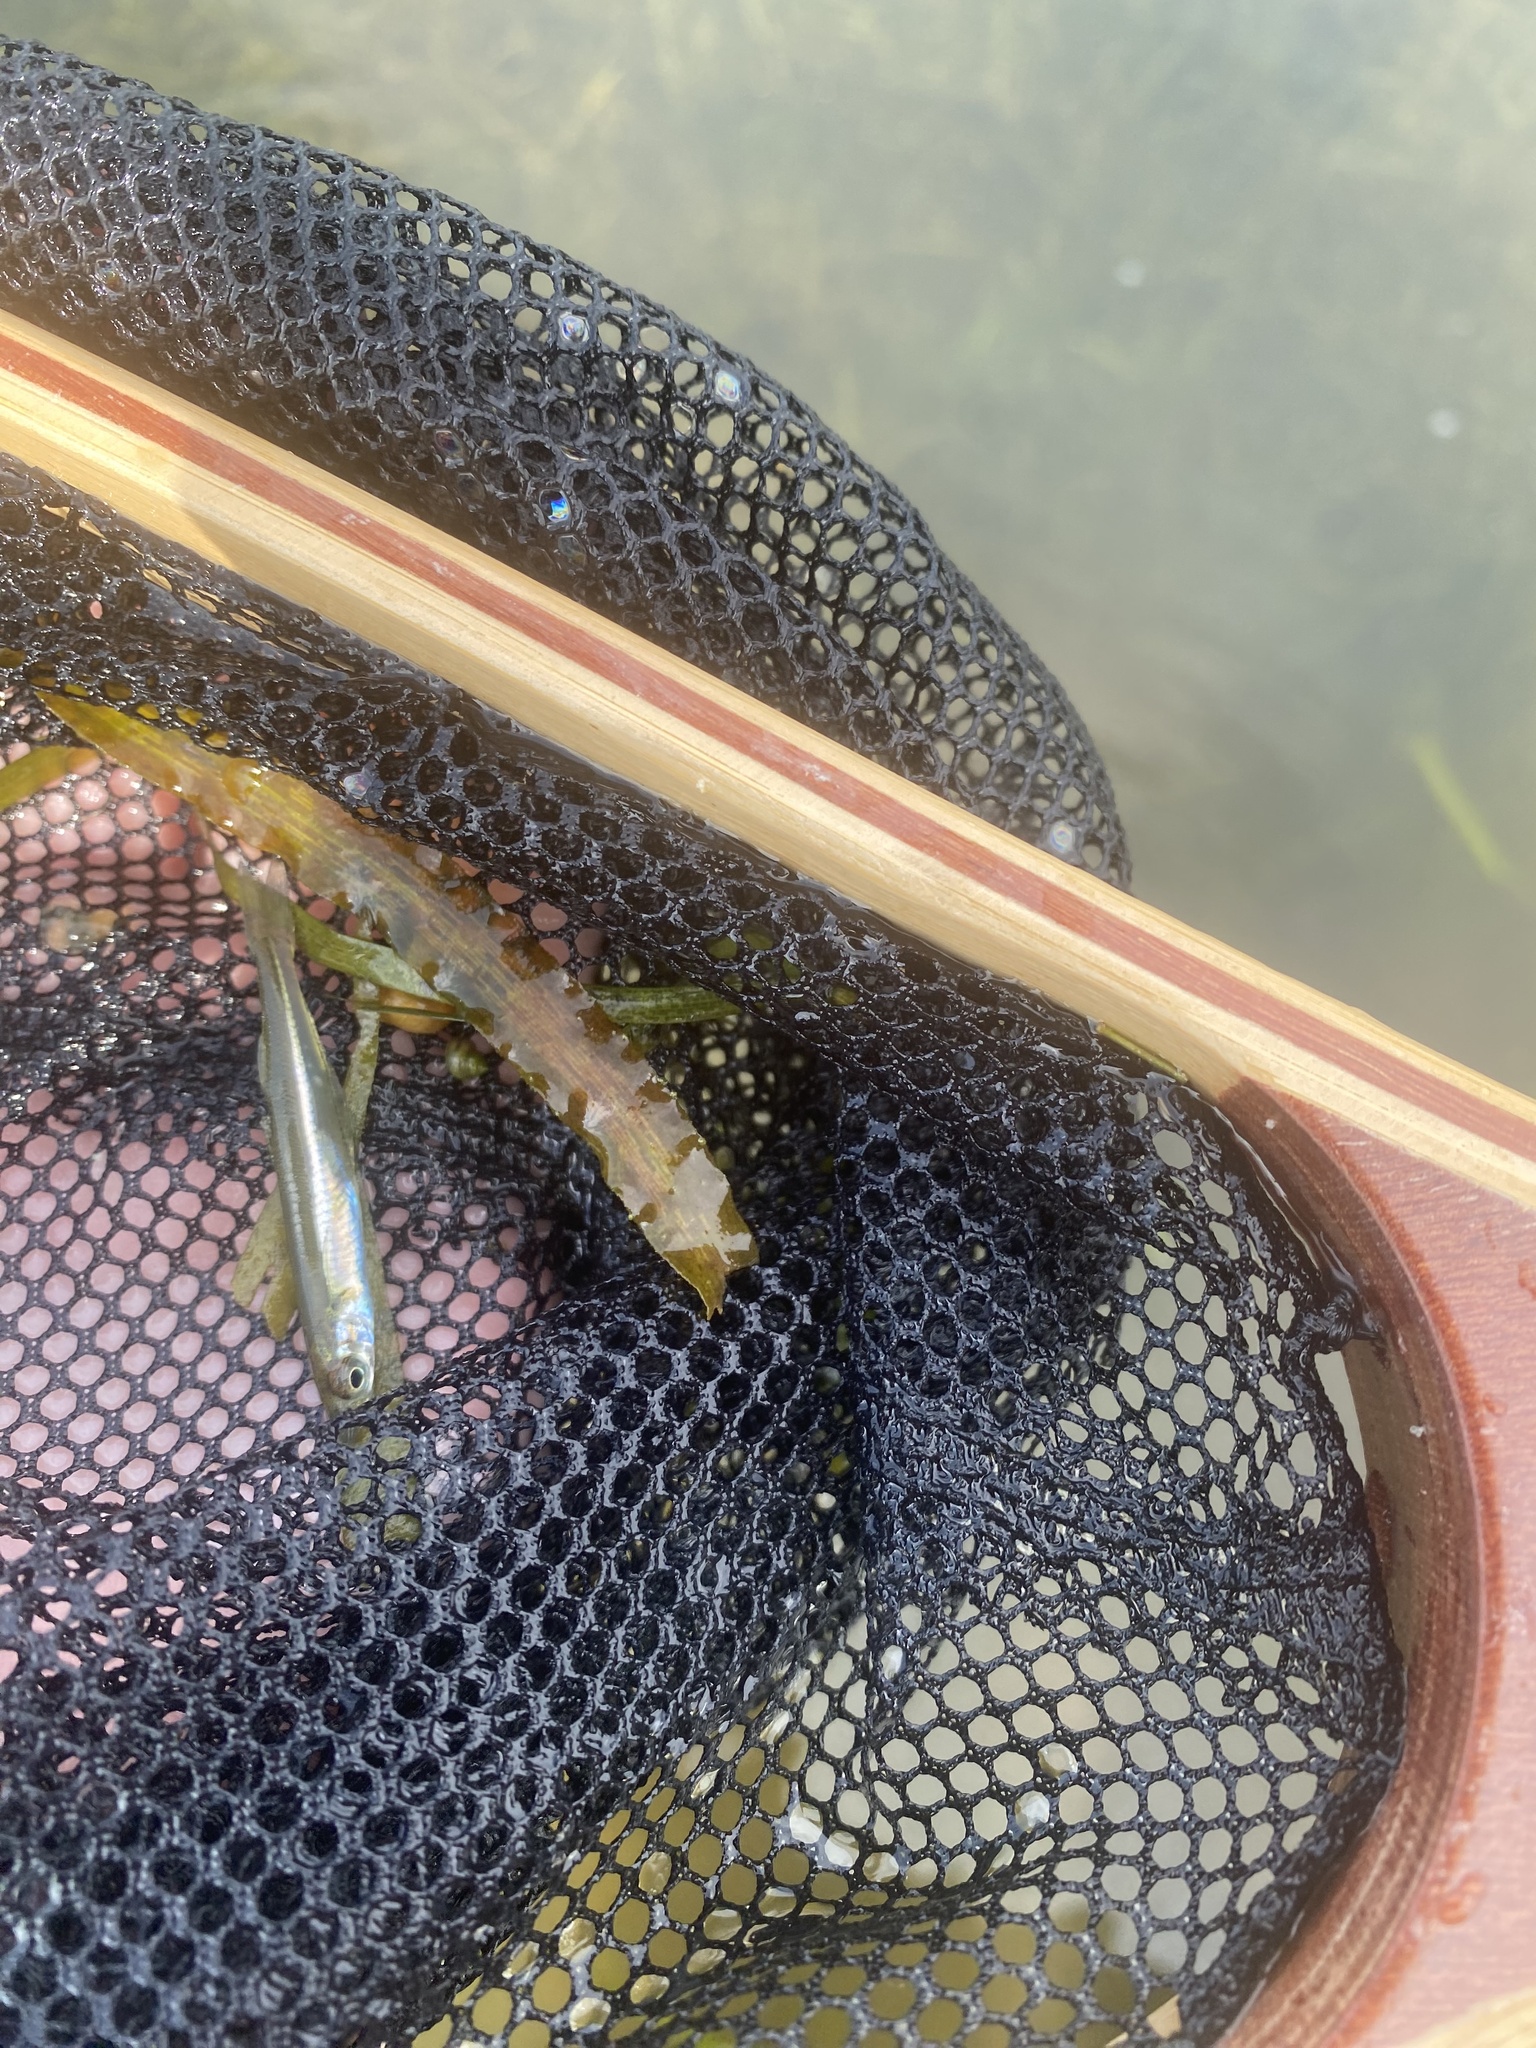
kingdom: Animalia
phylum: Chordata
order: Atheriniformes
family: Atherinopsidae
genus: Labidesthes
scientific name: Labidesthes sicculus
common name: Brook silverside
